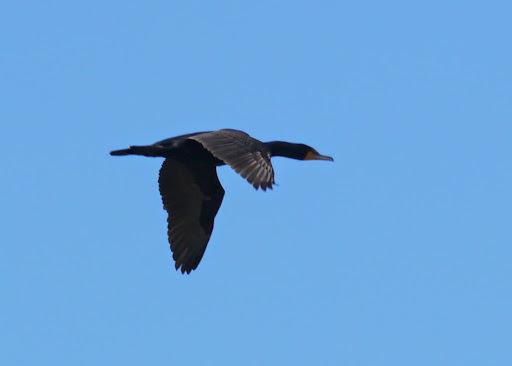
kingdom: Animalia
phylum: Chordata
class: Aves
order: Suliformes
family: Phalacrocoracidae
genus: Phalacrocorax
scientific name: Phalacrocorax auritus
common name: Double-crested cormorant
